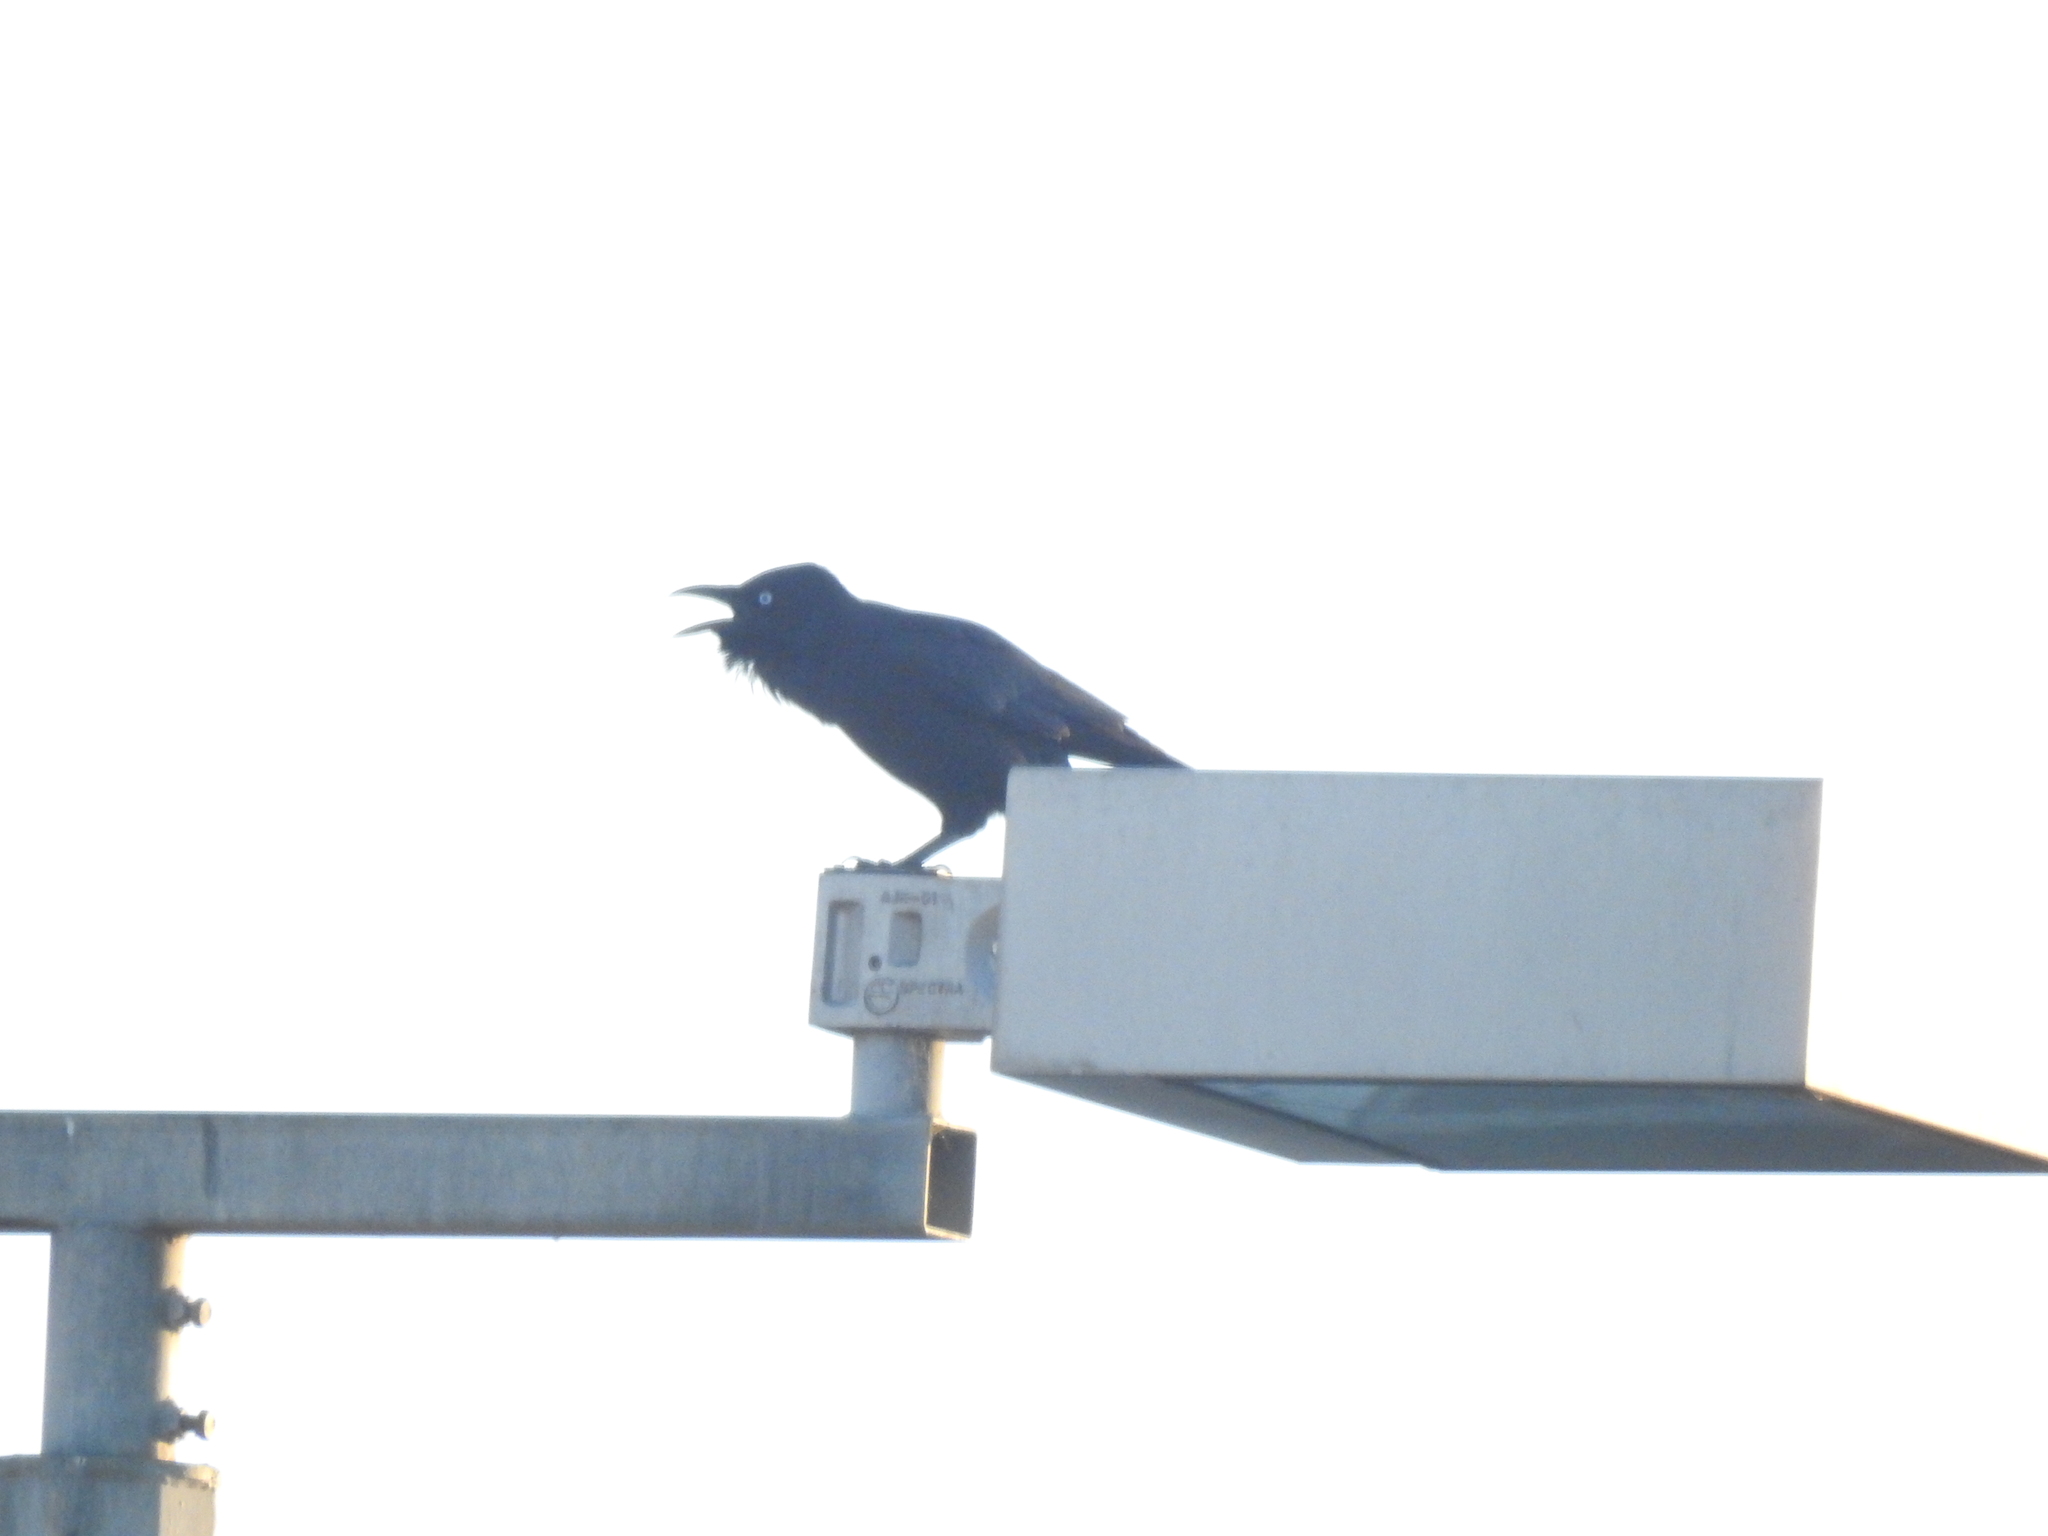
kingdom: Animalia
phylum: Chordata
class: Aves
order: Passeriformes
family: Corvidae
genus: Corvus
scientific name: Corvus mellori
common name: Little raven
